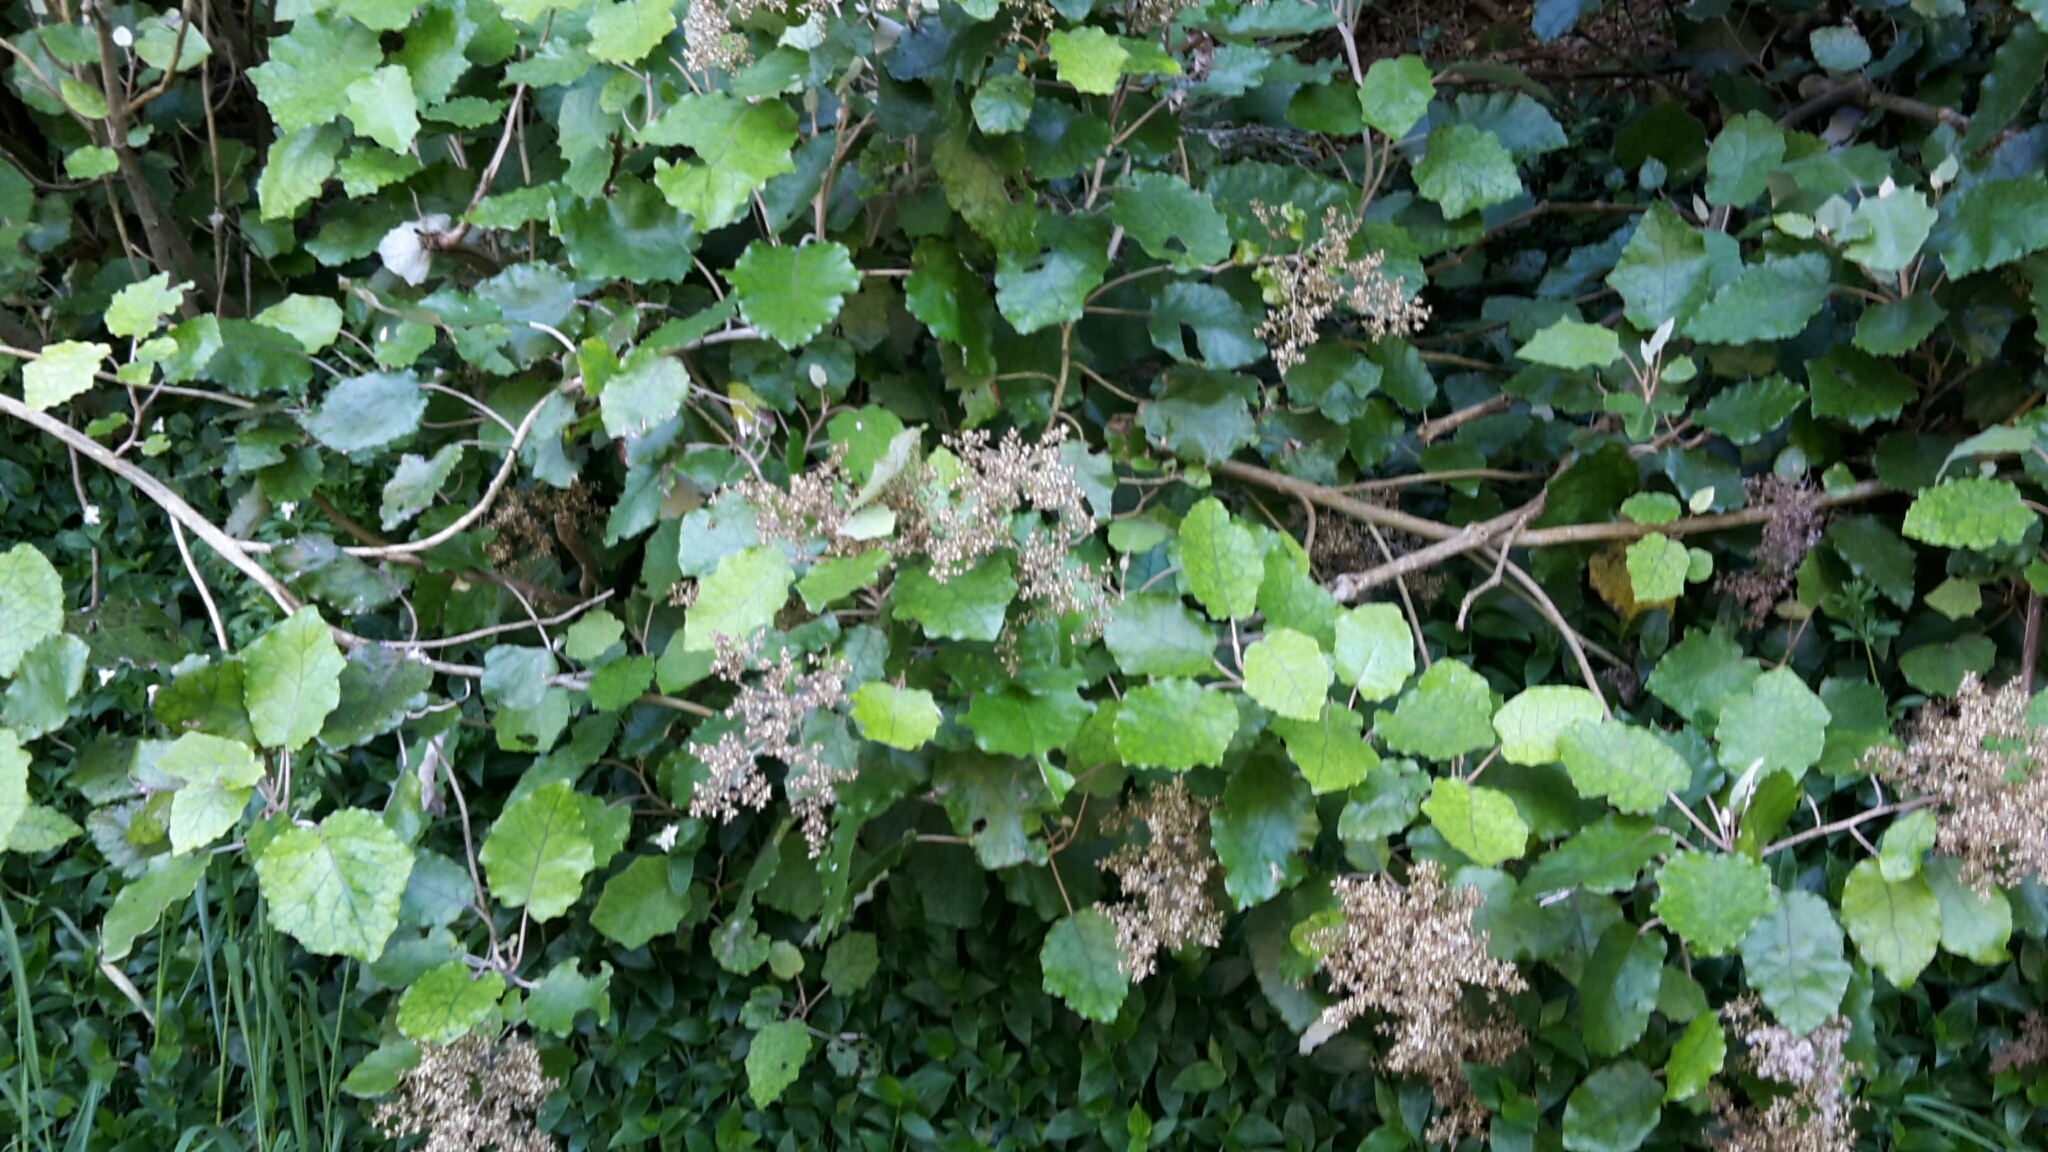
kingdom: Plantae
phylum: Tracheophyta
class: Magnoliopsida
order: Asterales
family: Asteraceae
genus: Brachyglottis
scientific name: Brachyglottis repanda
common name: Hedge ragwort
